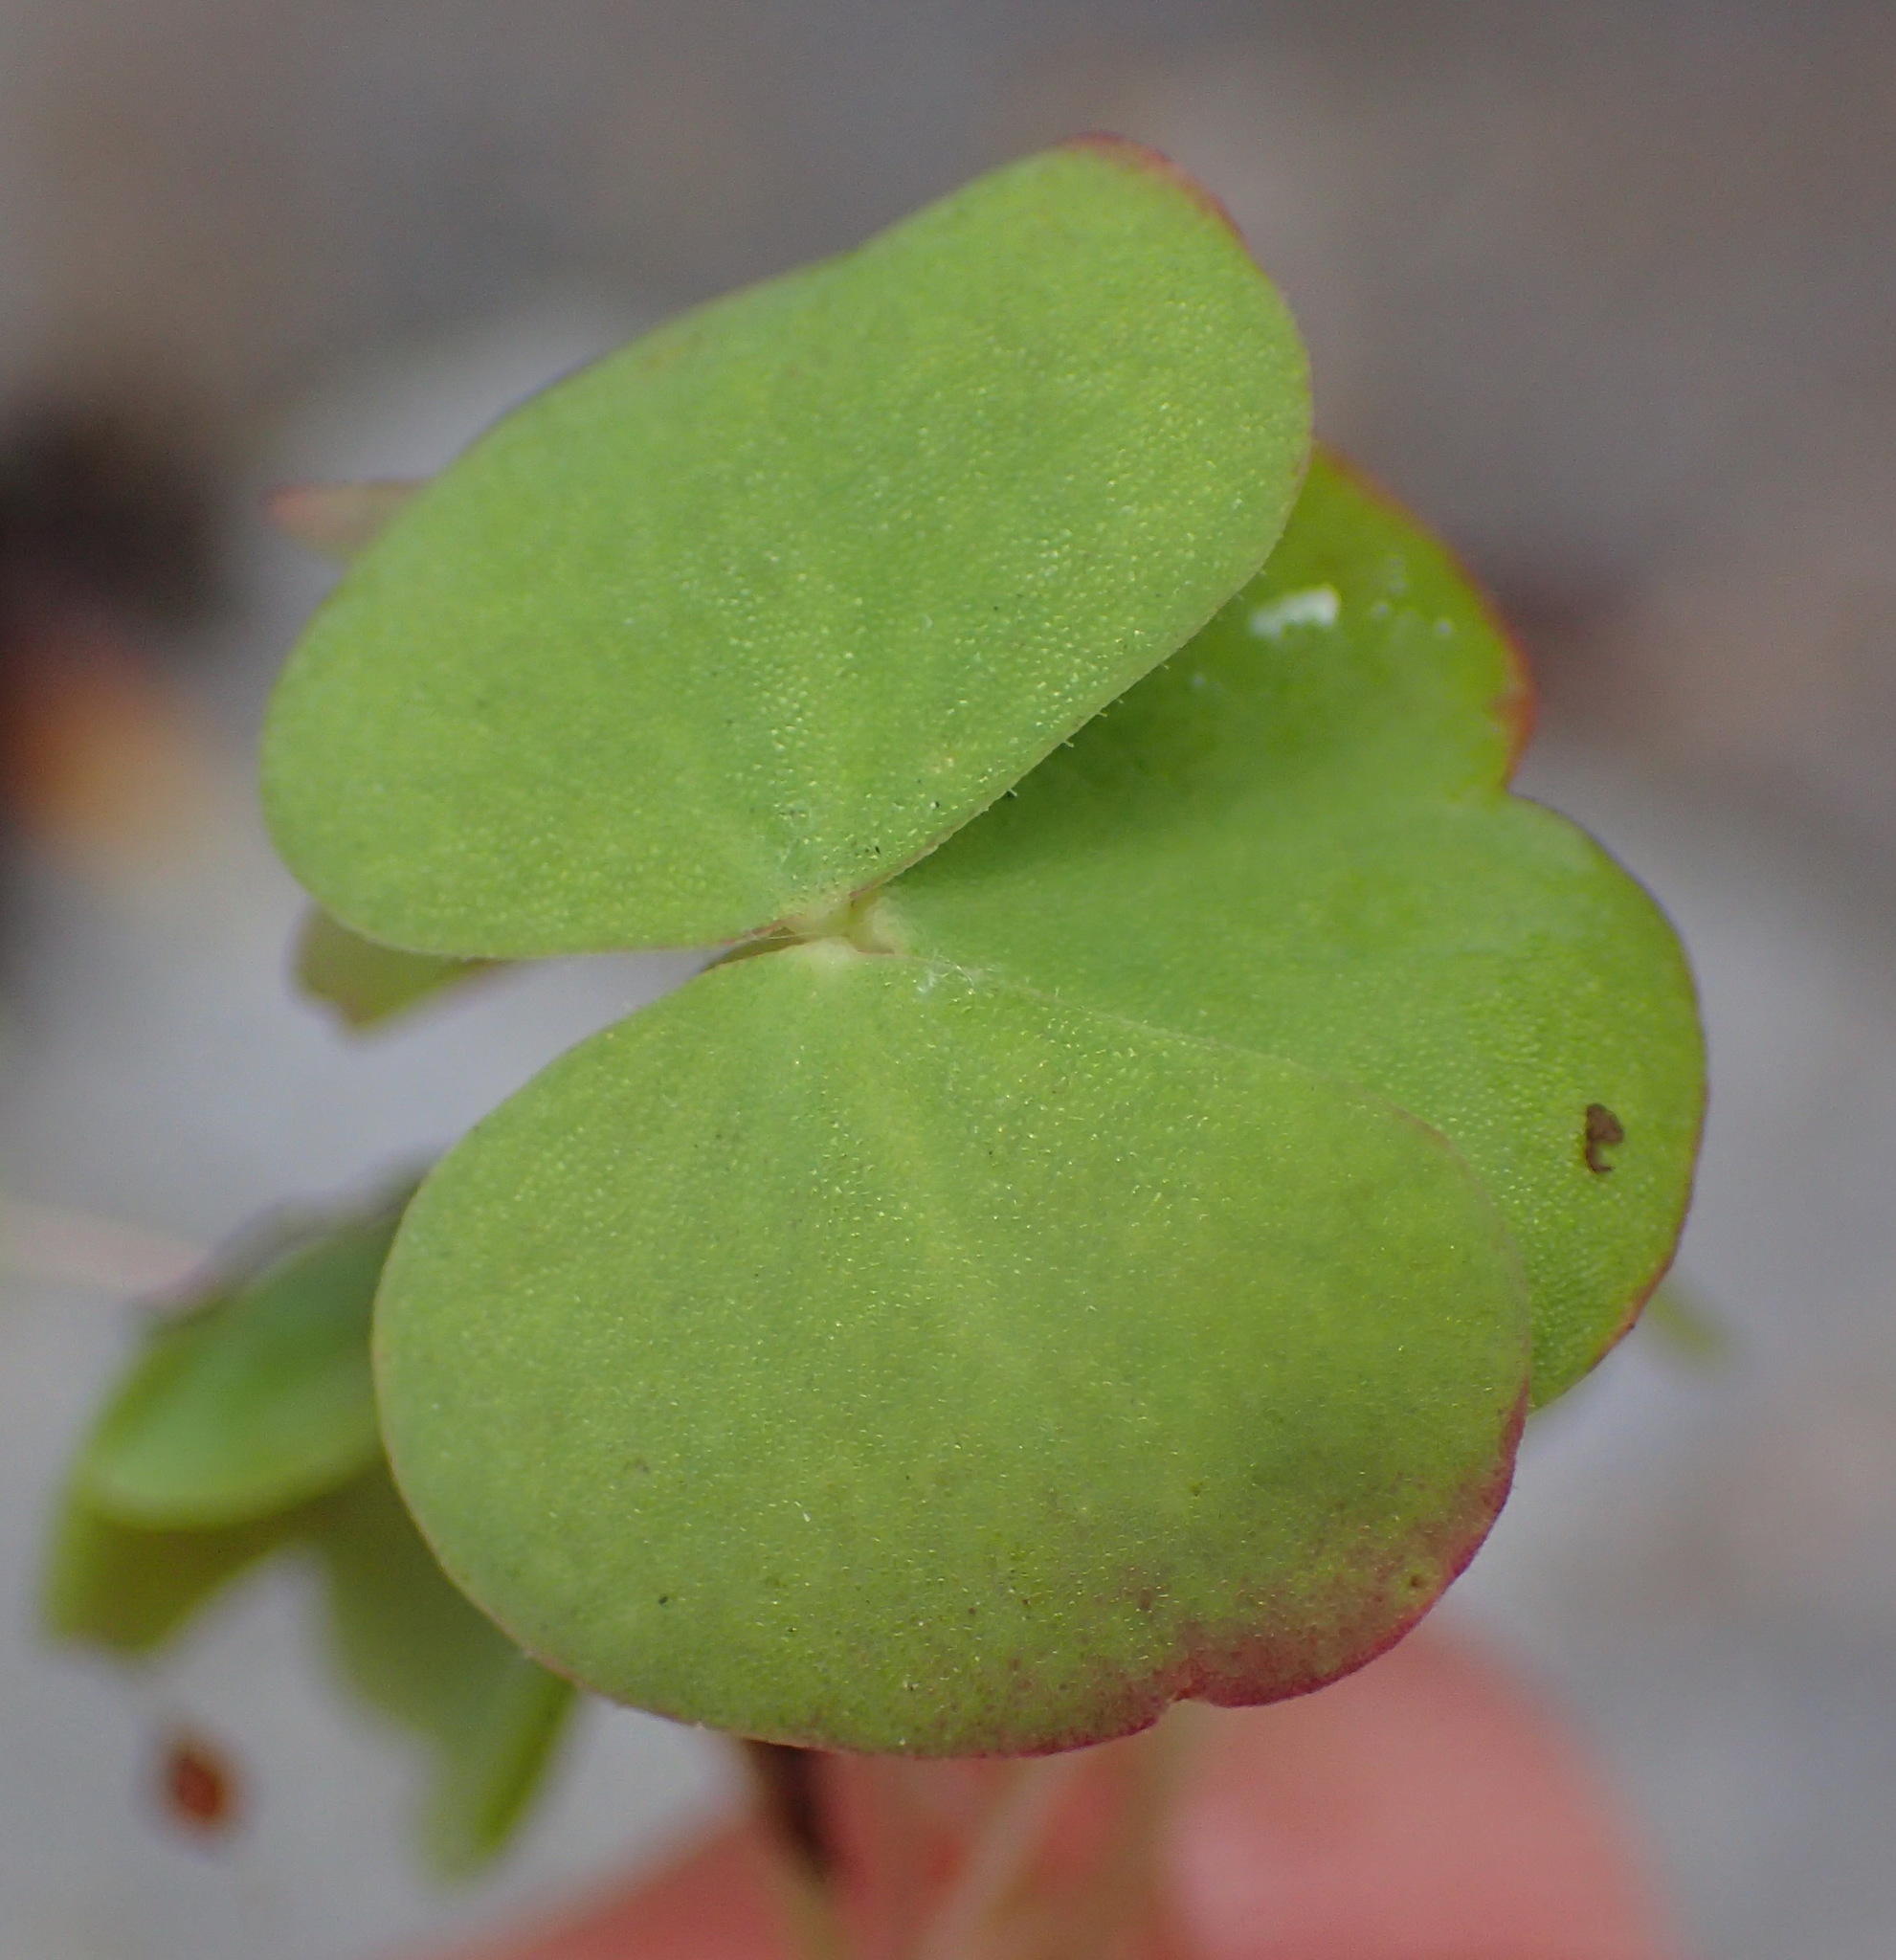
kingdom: Plantae
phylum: Tracheophyta
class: Magnoliopsida
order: Oxalidales
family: Oxalidaceae
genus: Oxalis
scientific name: Oxalis depressa
